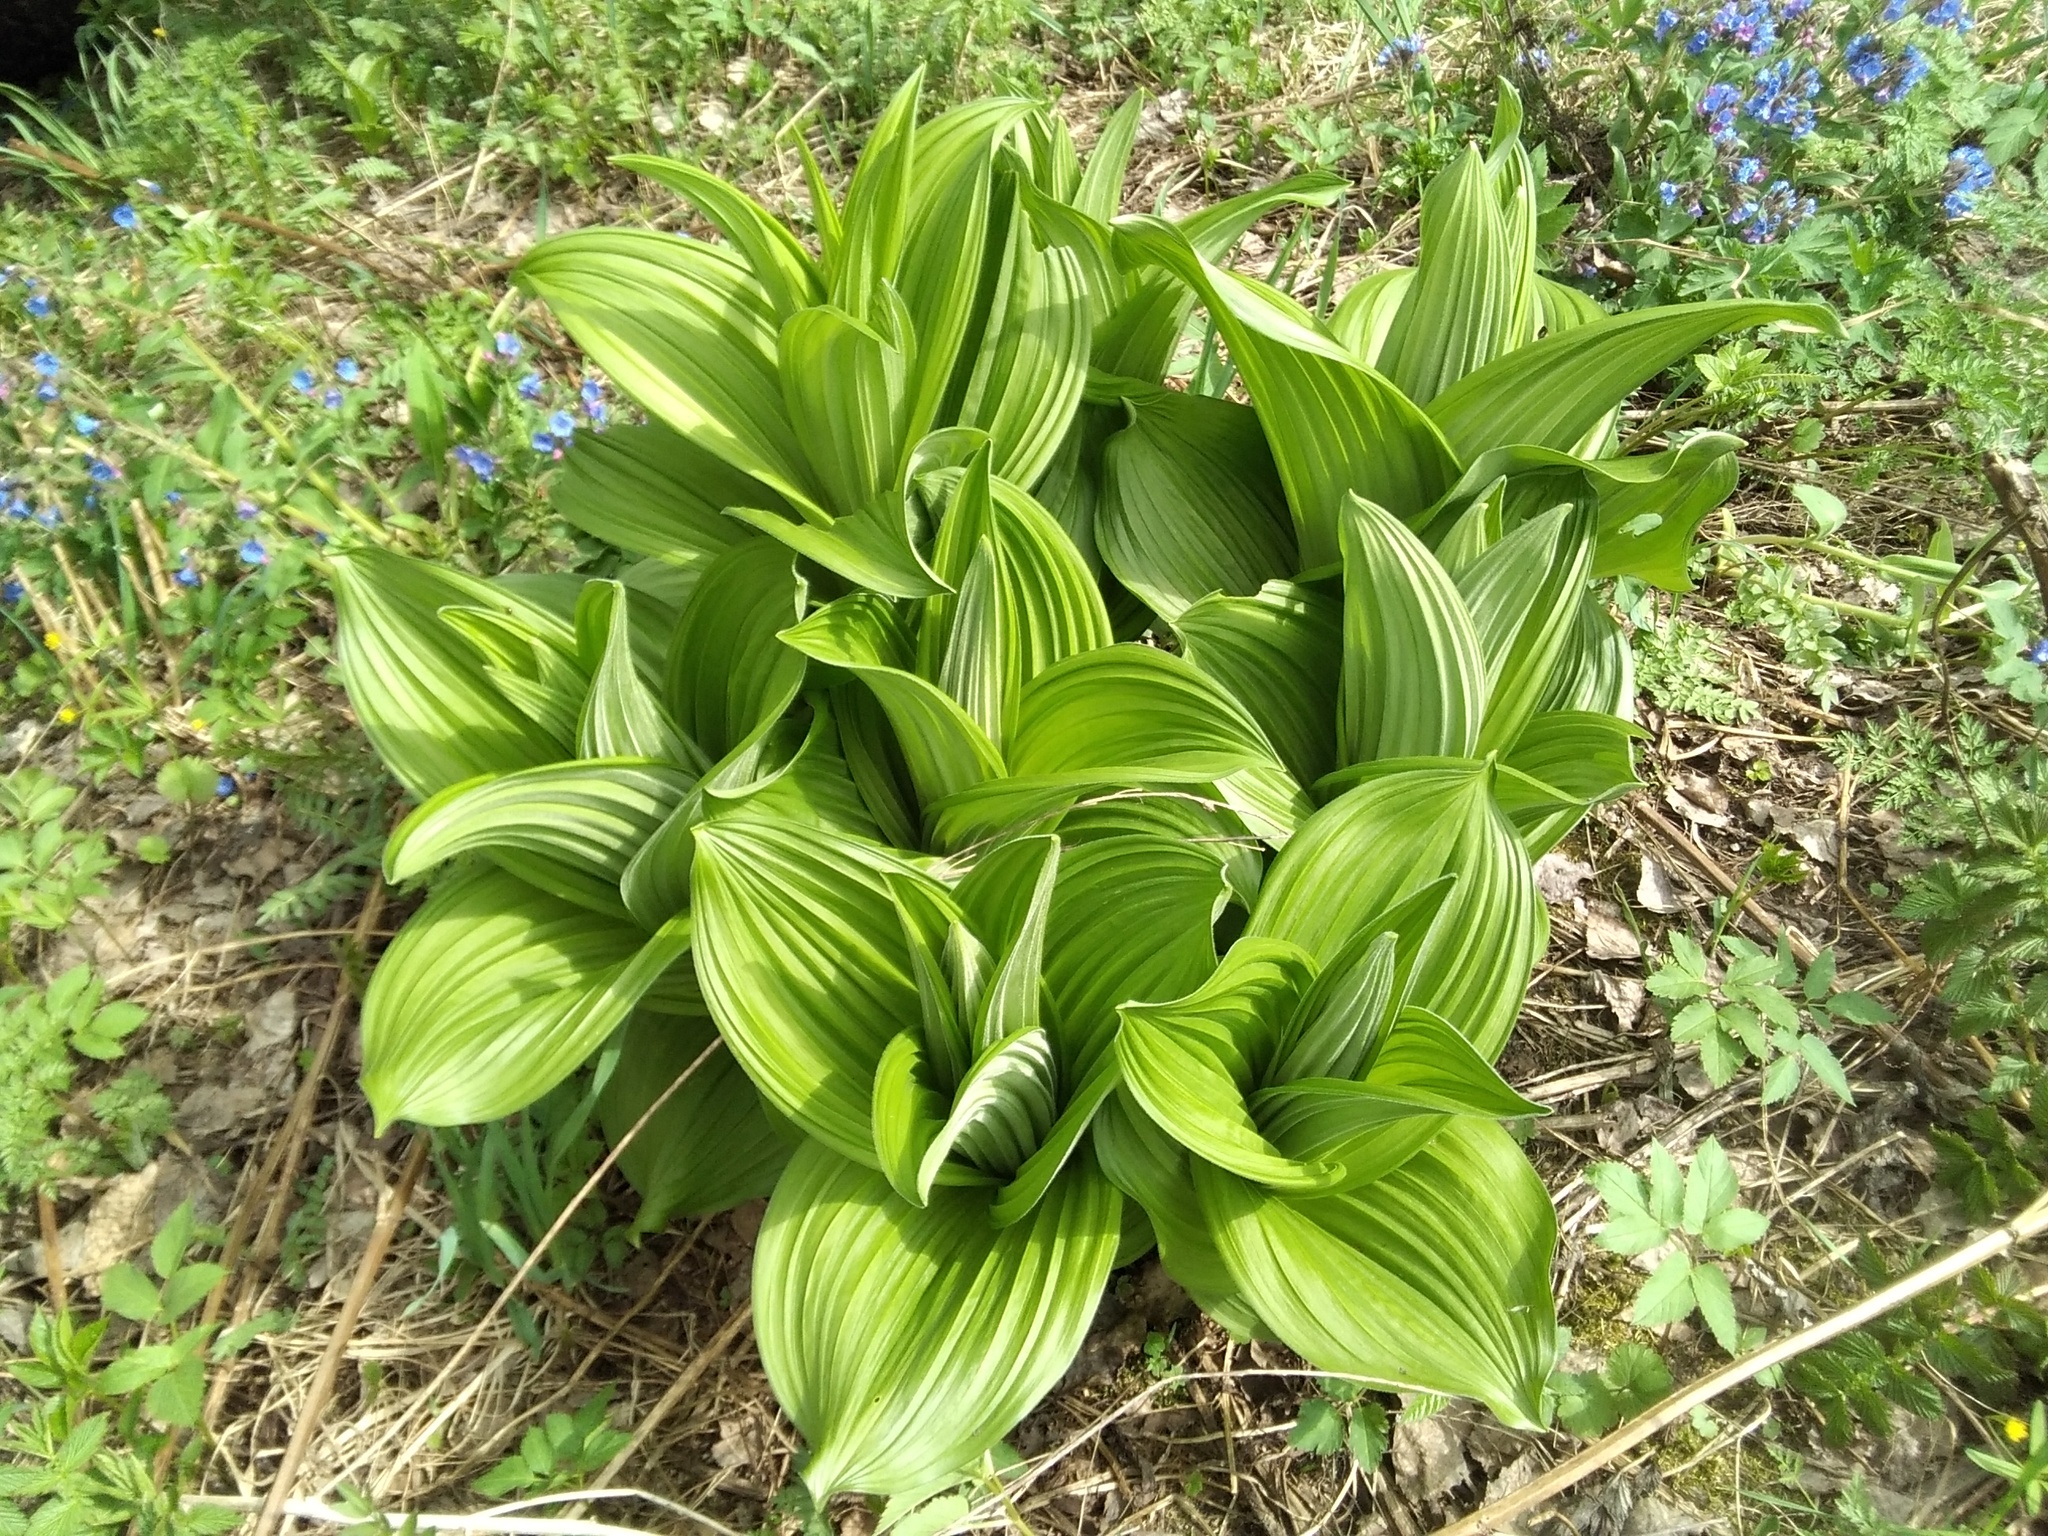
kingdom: Plantae
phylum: Tracheophyta
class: Liliopsida
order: Liliales
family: Melanthiaceae
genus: Veratrum
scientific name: Veratrum lobelianum
